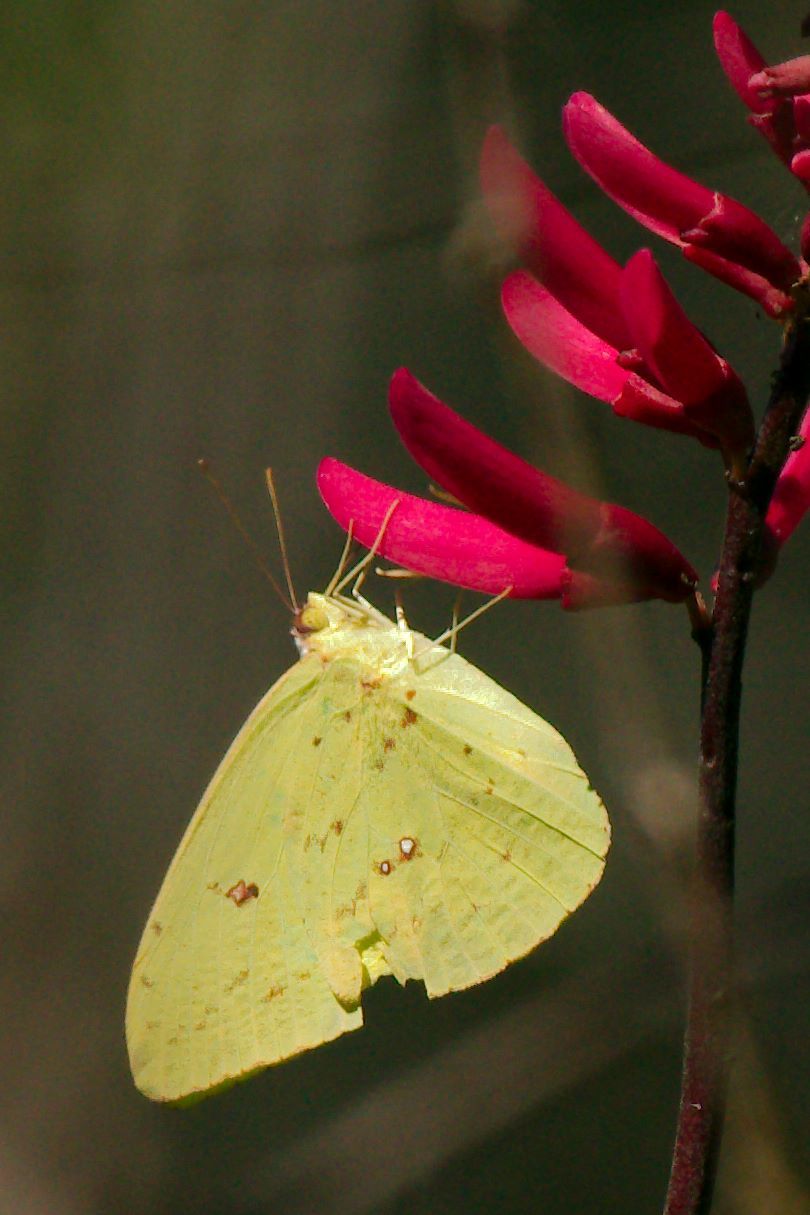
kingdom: Animalia
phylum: Arthropoda
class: Insecta
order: Lepidoptera
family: Pieridae
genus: Phoebis
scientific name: Phoebis sennae
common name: Cloudless sulphur
